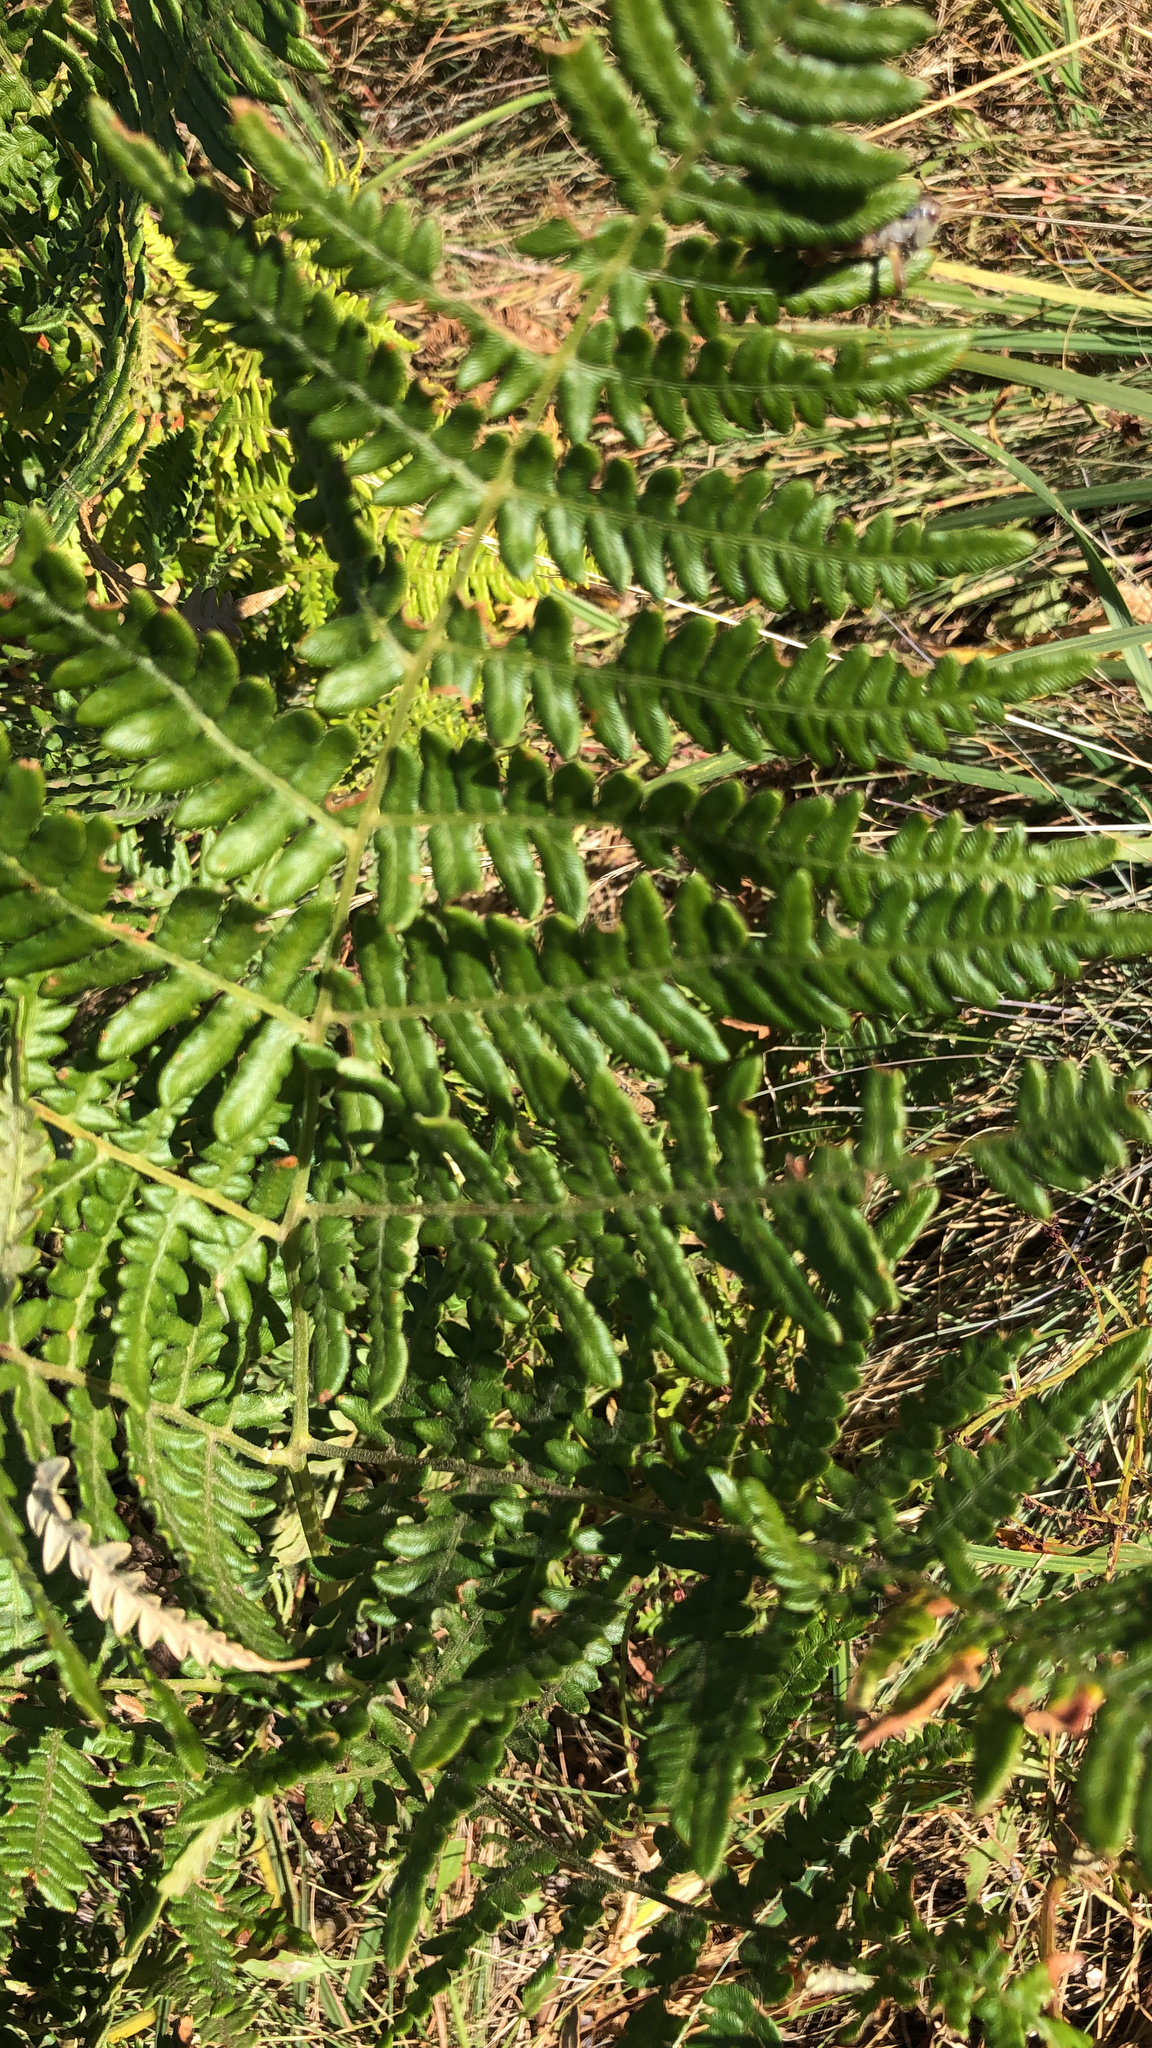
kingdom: Plantae
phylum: Tracheophyta
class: Polypodiopsida
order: Polypodiales
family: Dennstaedtiaceae
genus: Pteridium
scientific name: Pteridium aquilinum
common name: Bracken
